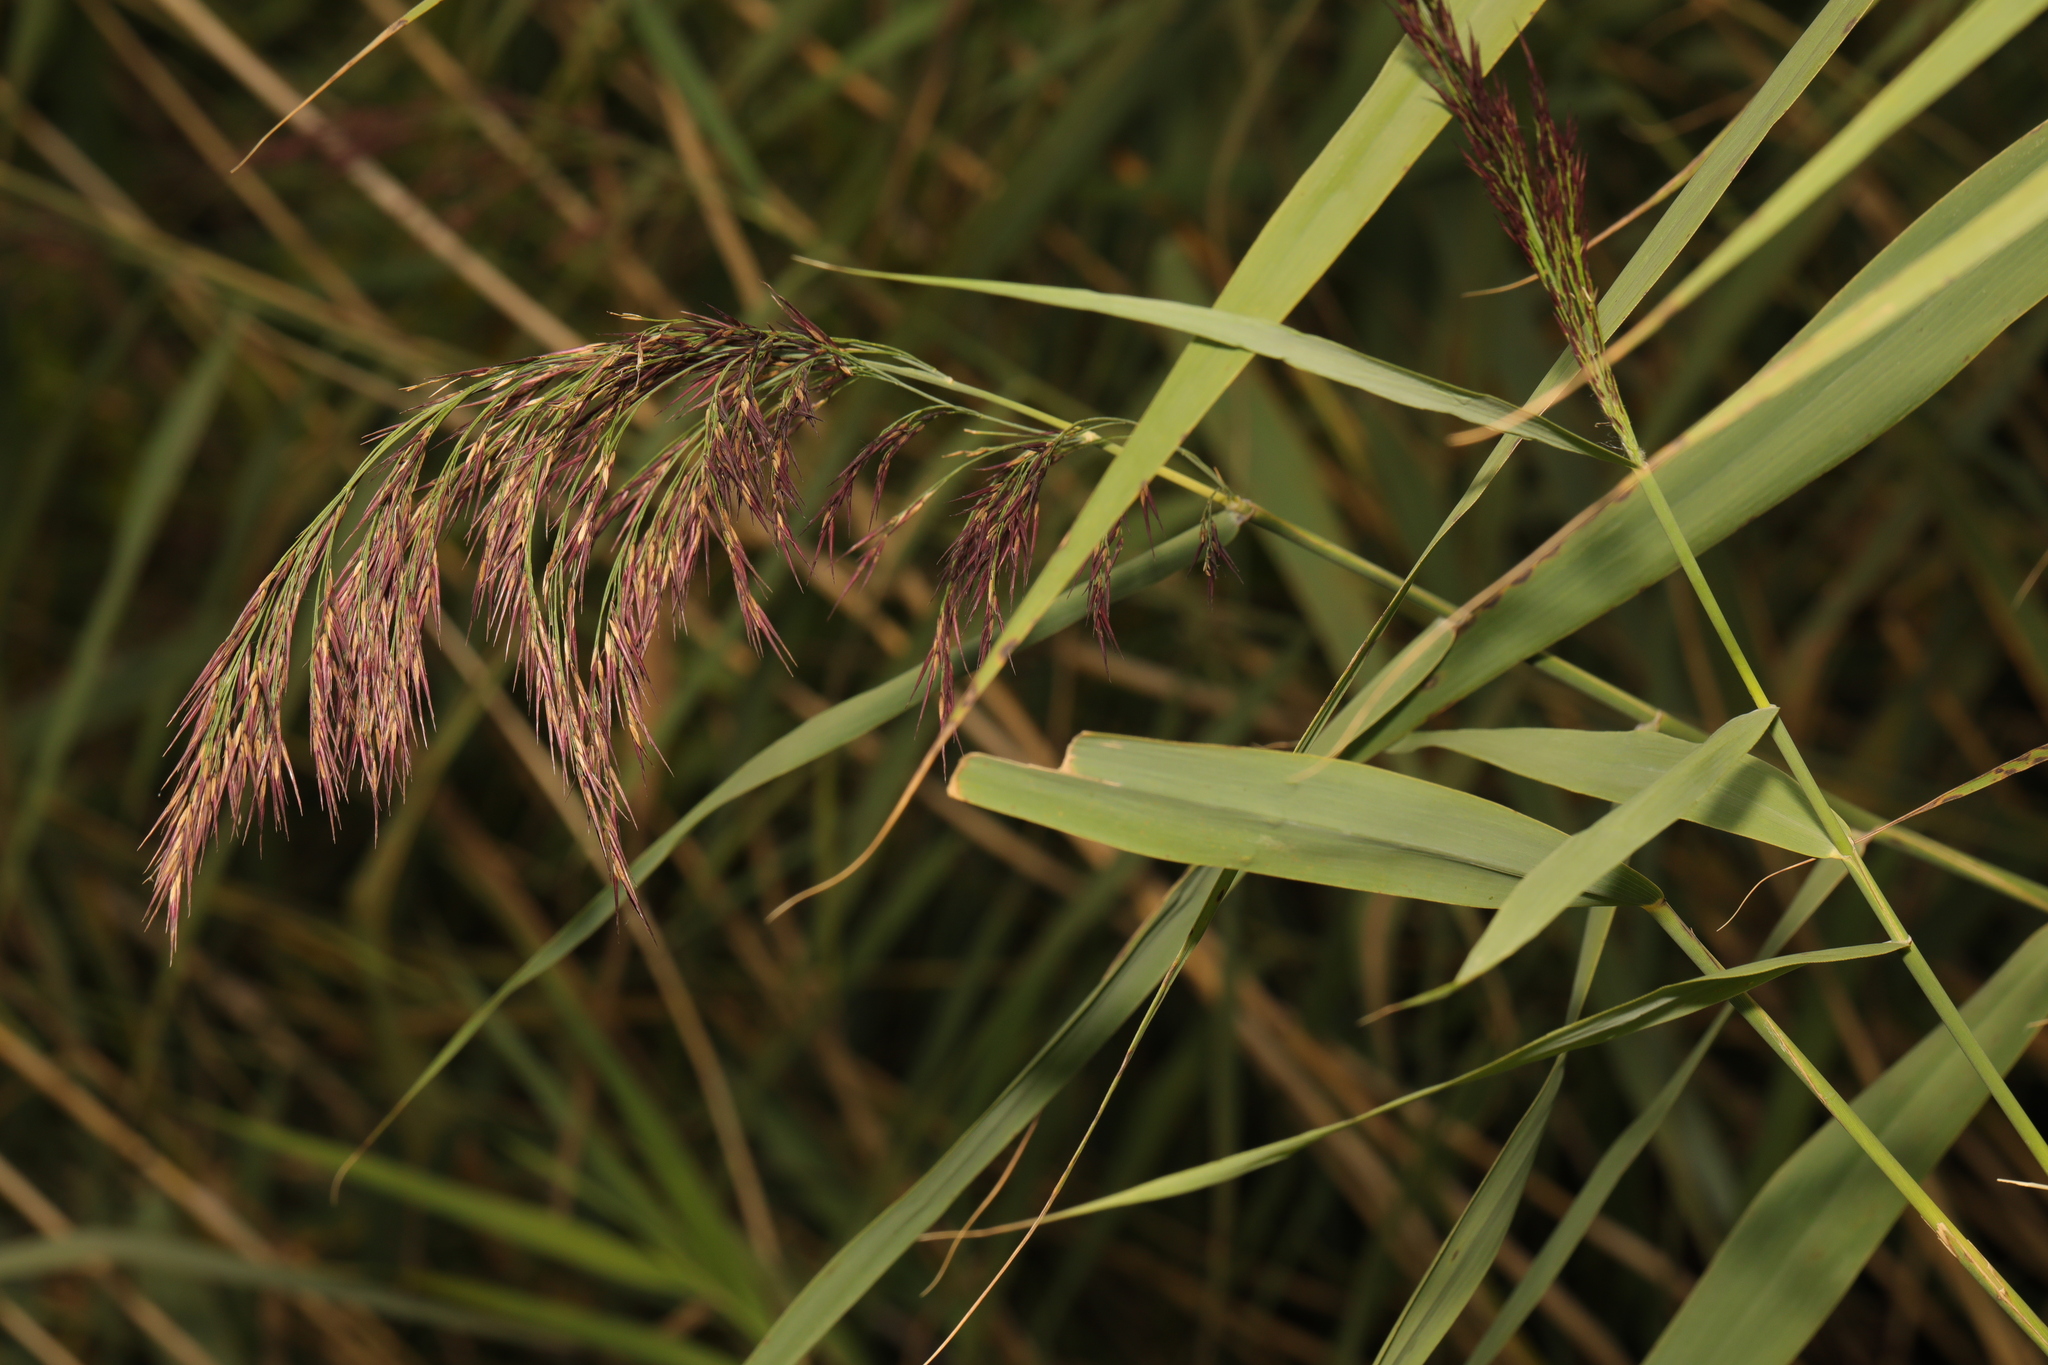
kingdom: Plantae
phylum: Tracheophyta
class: Liliopsida
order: Poales
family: Poaceae
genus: Phragmites
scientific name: Phragmites australis
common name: Common reed
